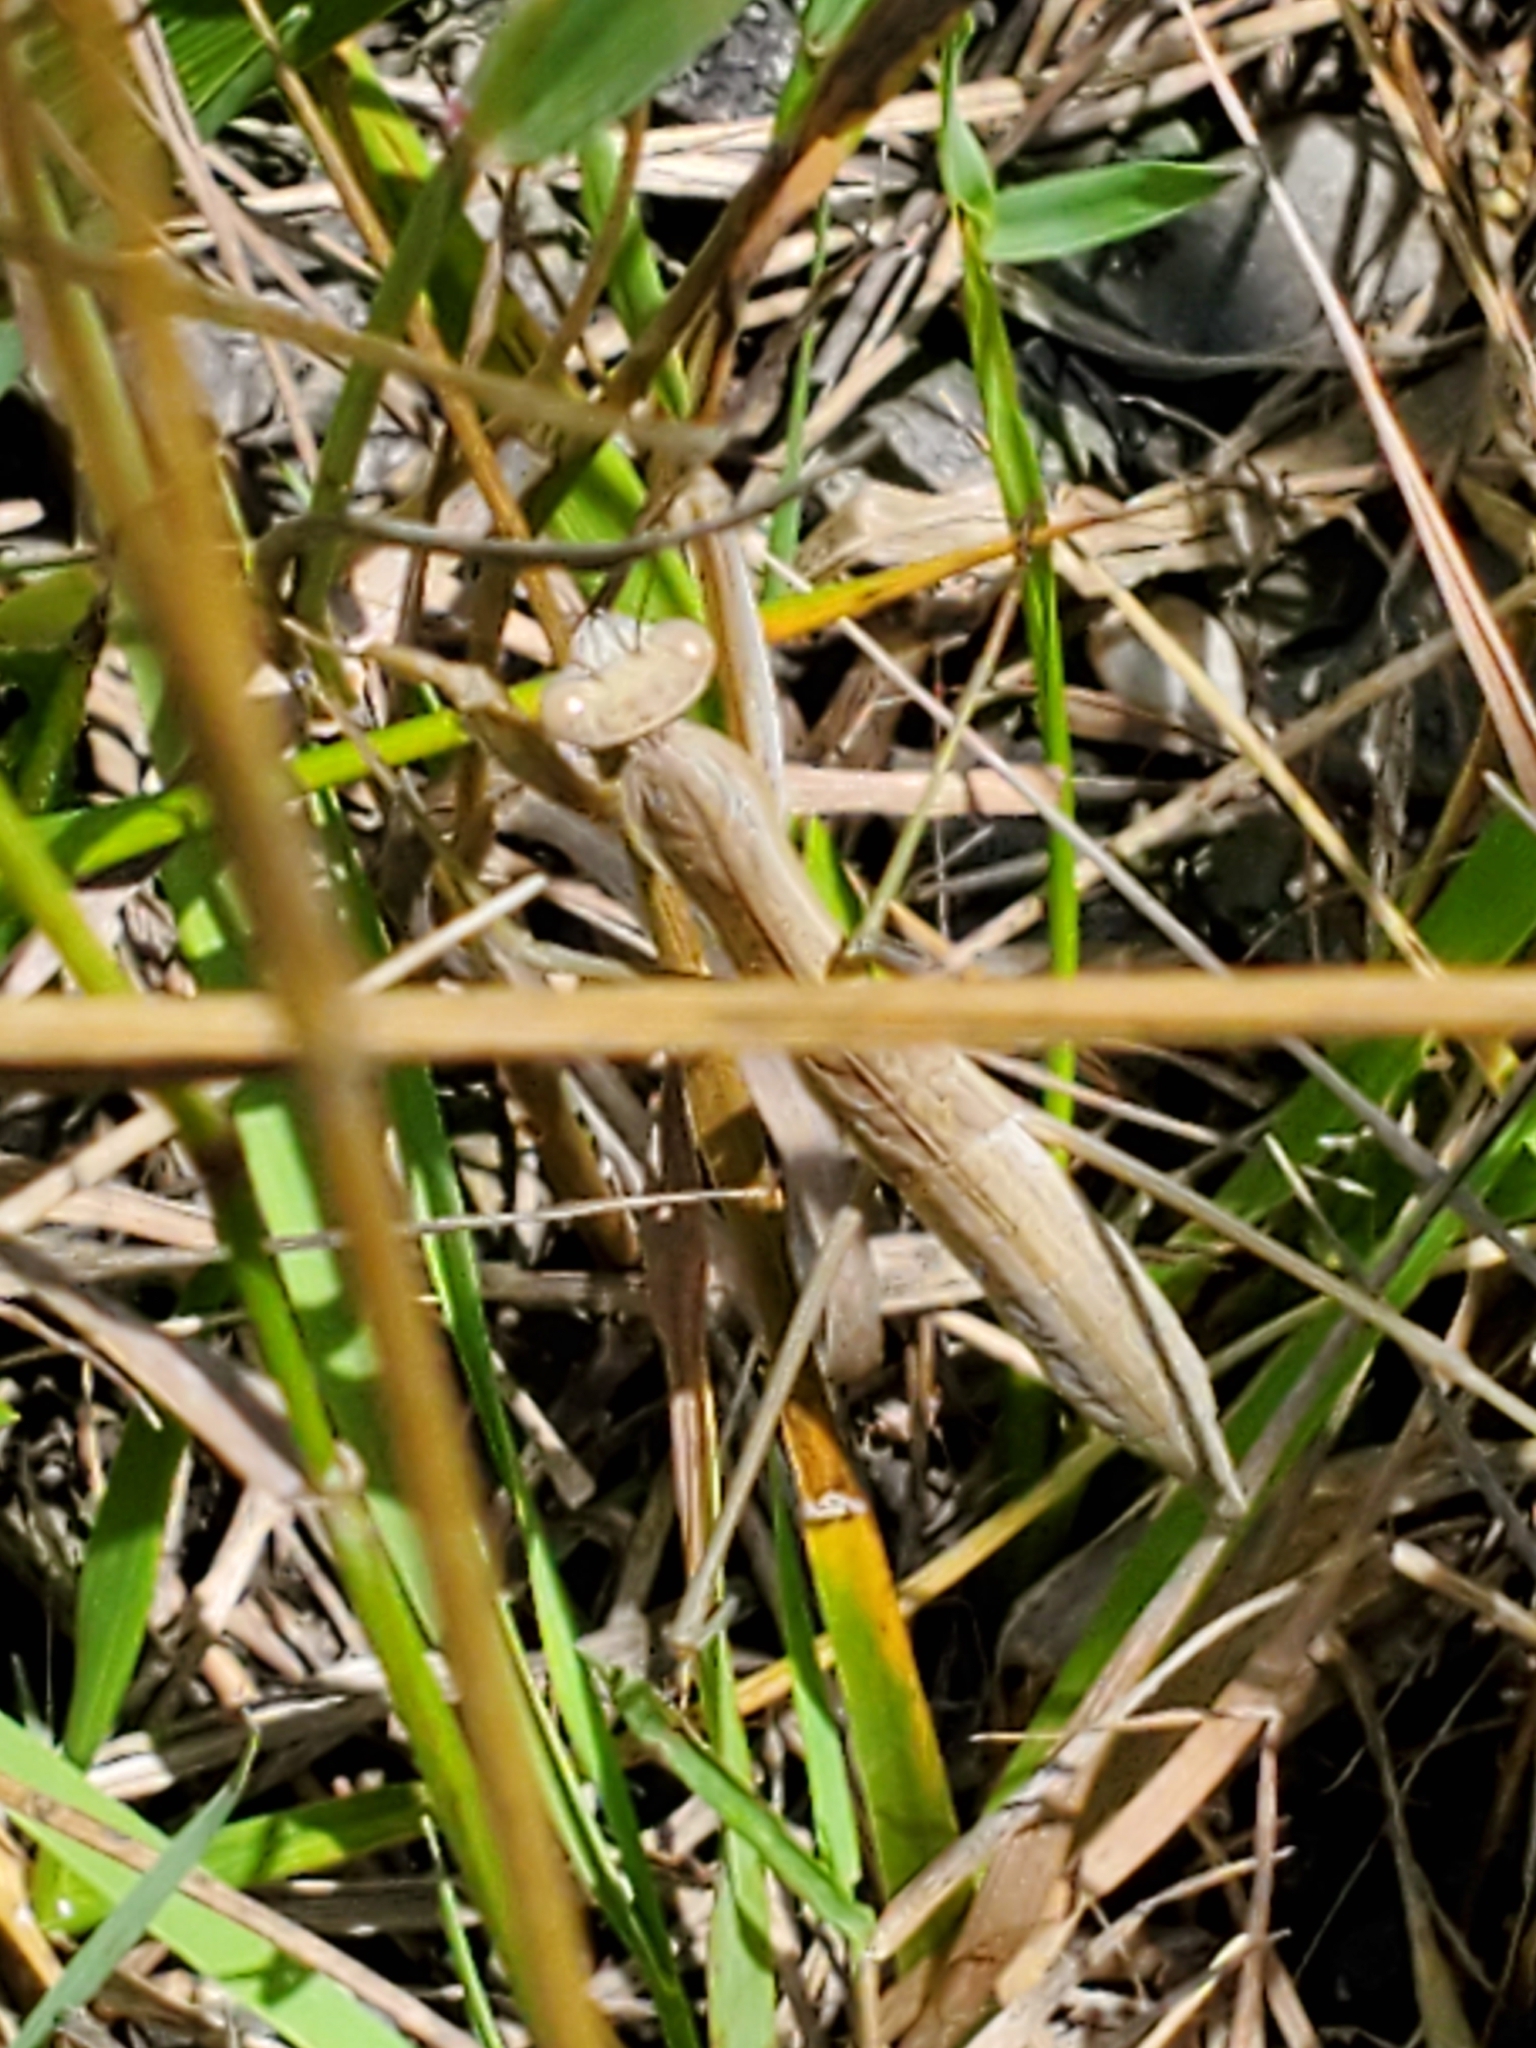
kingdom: Animalia
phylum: Arthropoda
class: Insecta
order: Mantodea
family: Mantidae
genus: Tenodera
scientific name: Tenodera sinensis
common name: Chinese mantis
